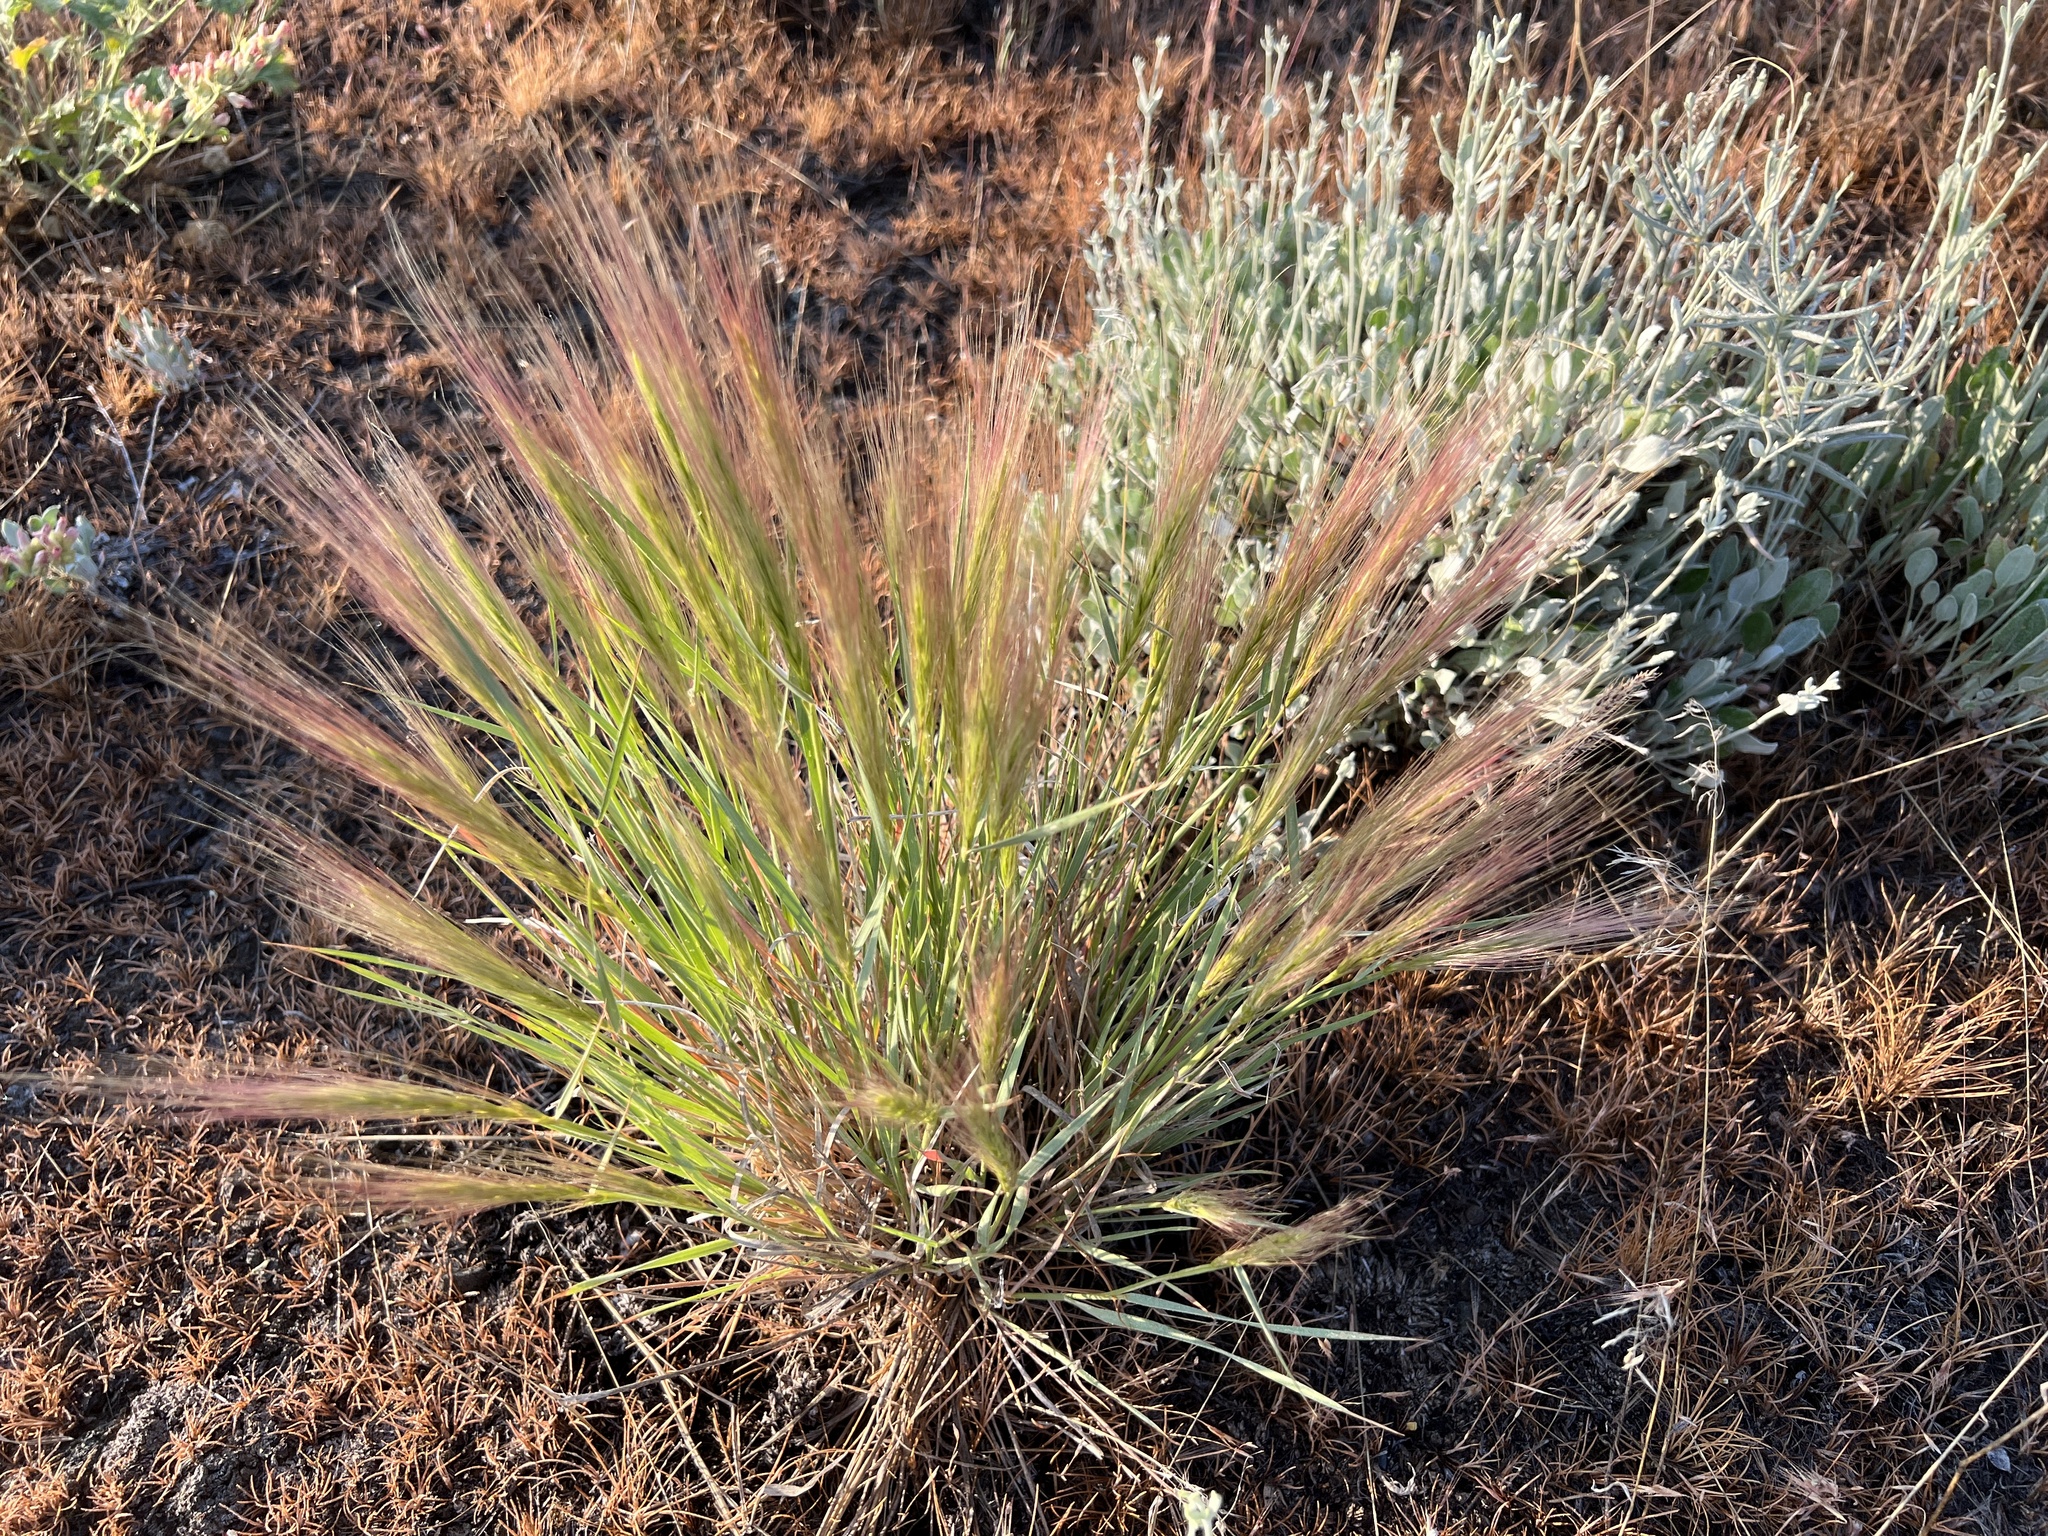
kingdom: Plantae
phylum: Tracheophyta
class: Liliopsida
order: Poales
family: Poaceae
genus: Elymus
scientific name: Elymus elymoides
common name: Bottlebrush squirreltail
